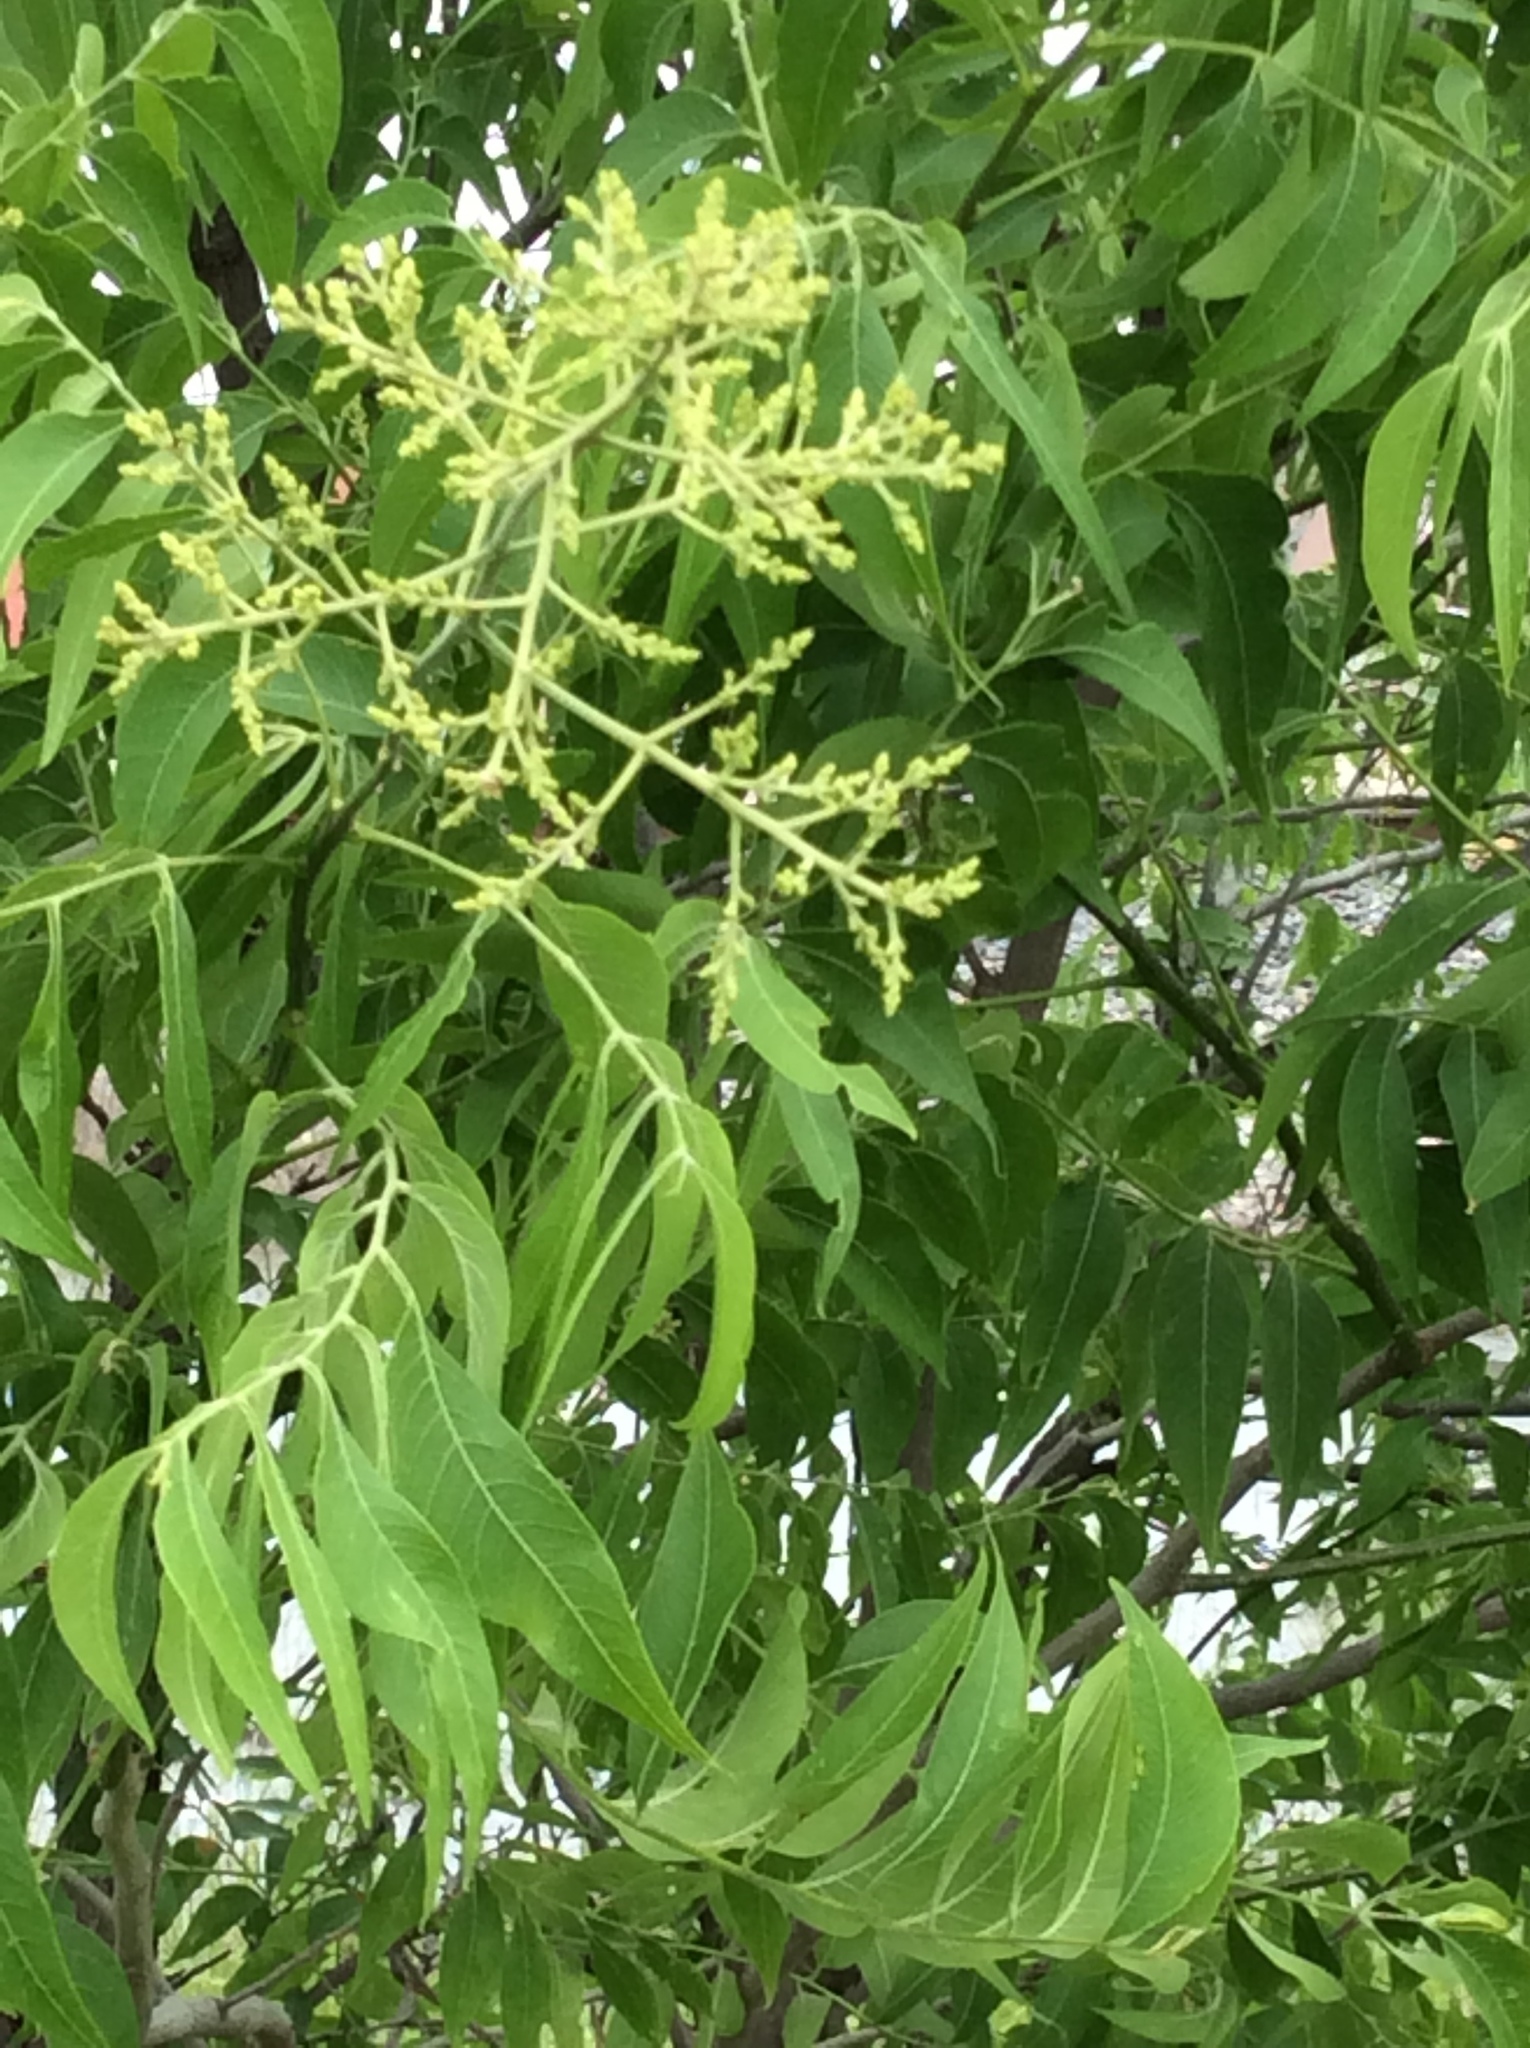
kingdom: Plantae
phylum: Tracheophyta
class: Magnoliopsida
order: Sapindales
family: Sapindaceae
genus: Sapindus
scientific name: Sapindus drummondii
